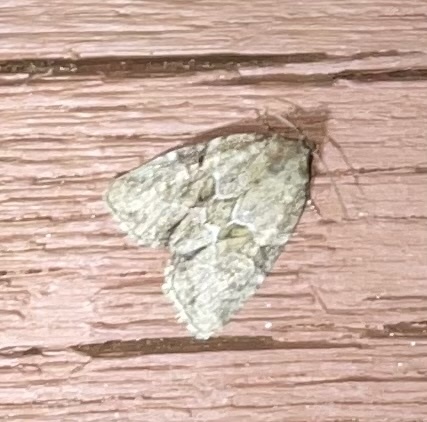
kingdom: Animalia
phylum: Arthropoda
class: Insecta
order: Lepidoptera
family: Noctuidae
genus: Neoligia
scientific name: Neoligia exhausta
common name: Exhausted brocade
